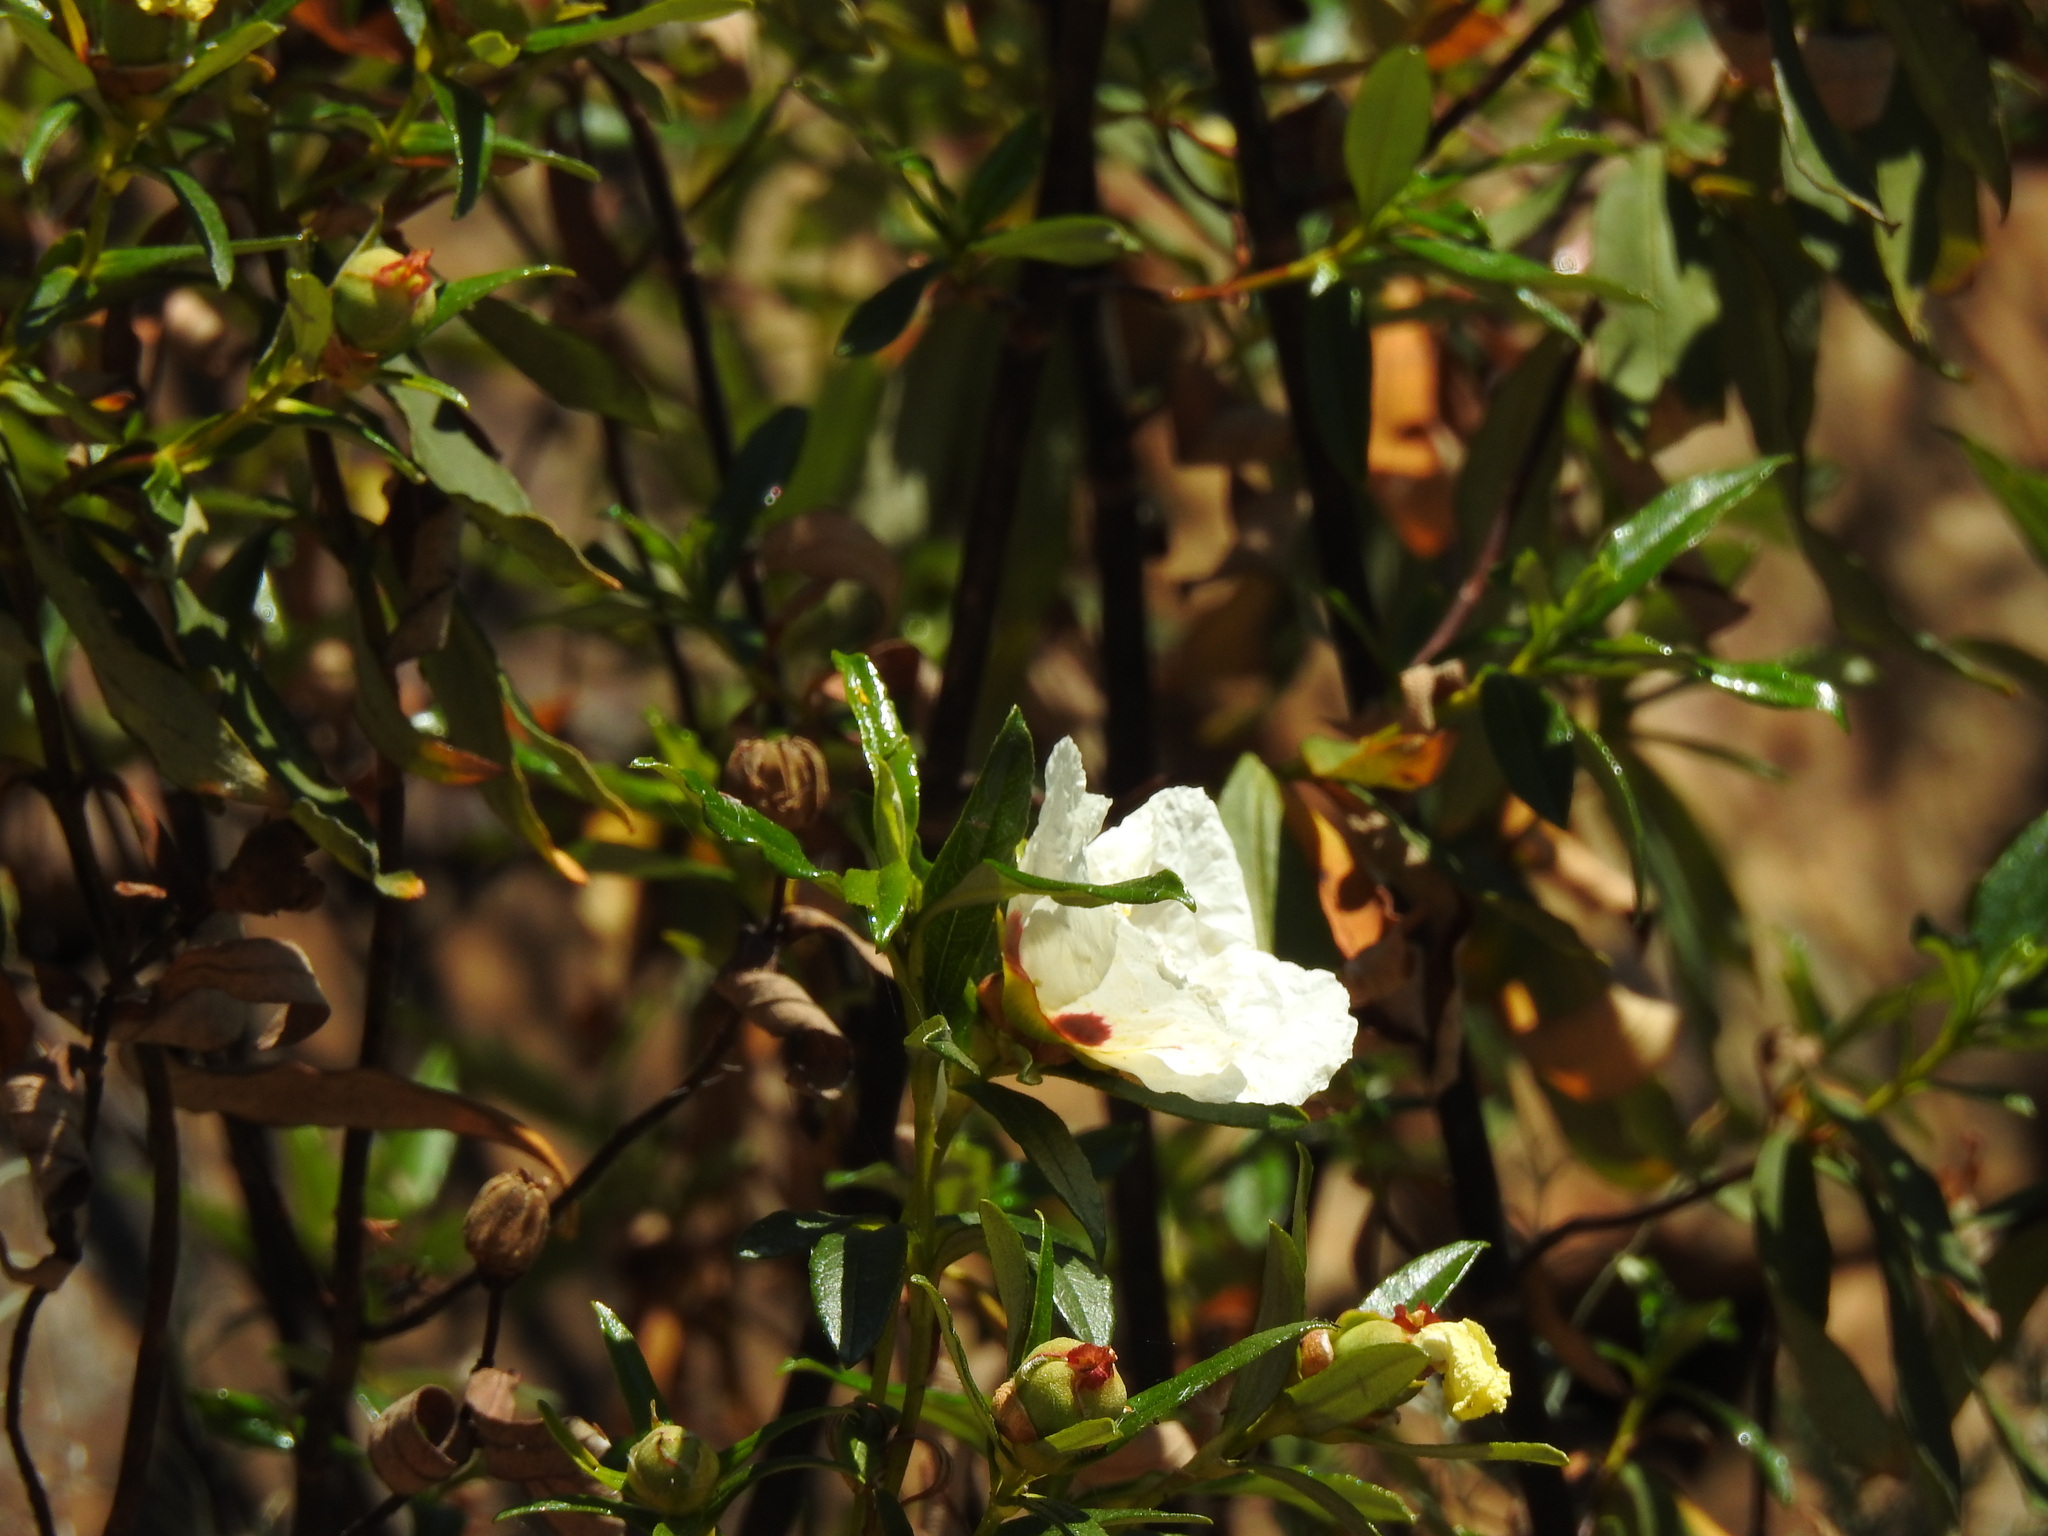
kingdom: Plantae
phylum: Tracheophyta
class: Magnoliopsida
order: Malvales
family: Cistaceae
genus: Cistus
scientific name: Cistus ladanifer
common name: Common gum cistus
